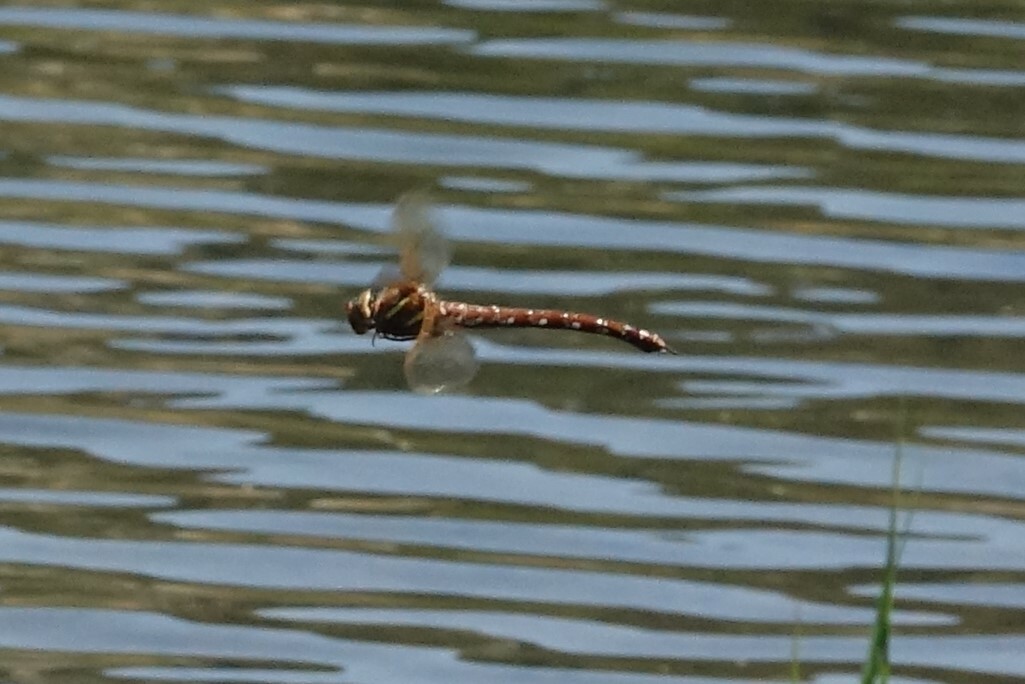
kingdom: Animalia
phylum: Arthropoda
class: Insecta
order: Odonata
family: Aeshnidae
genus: Aeshna
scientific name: Aeshna grandis
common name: Brown hawker
